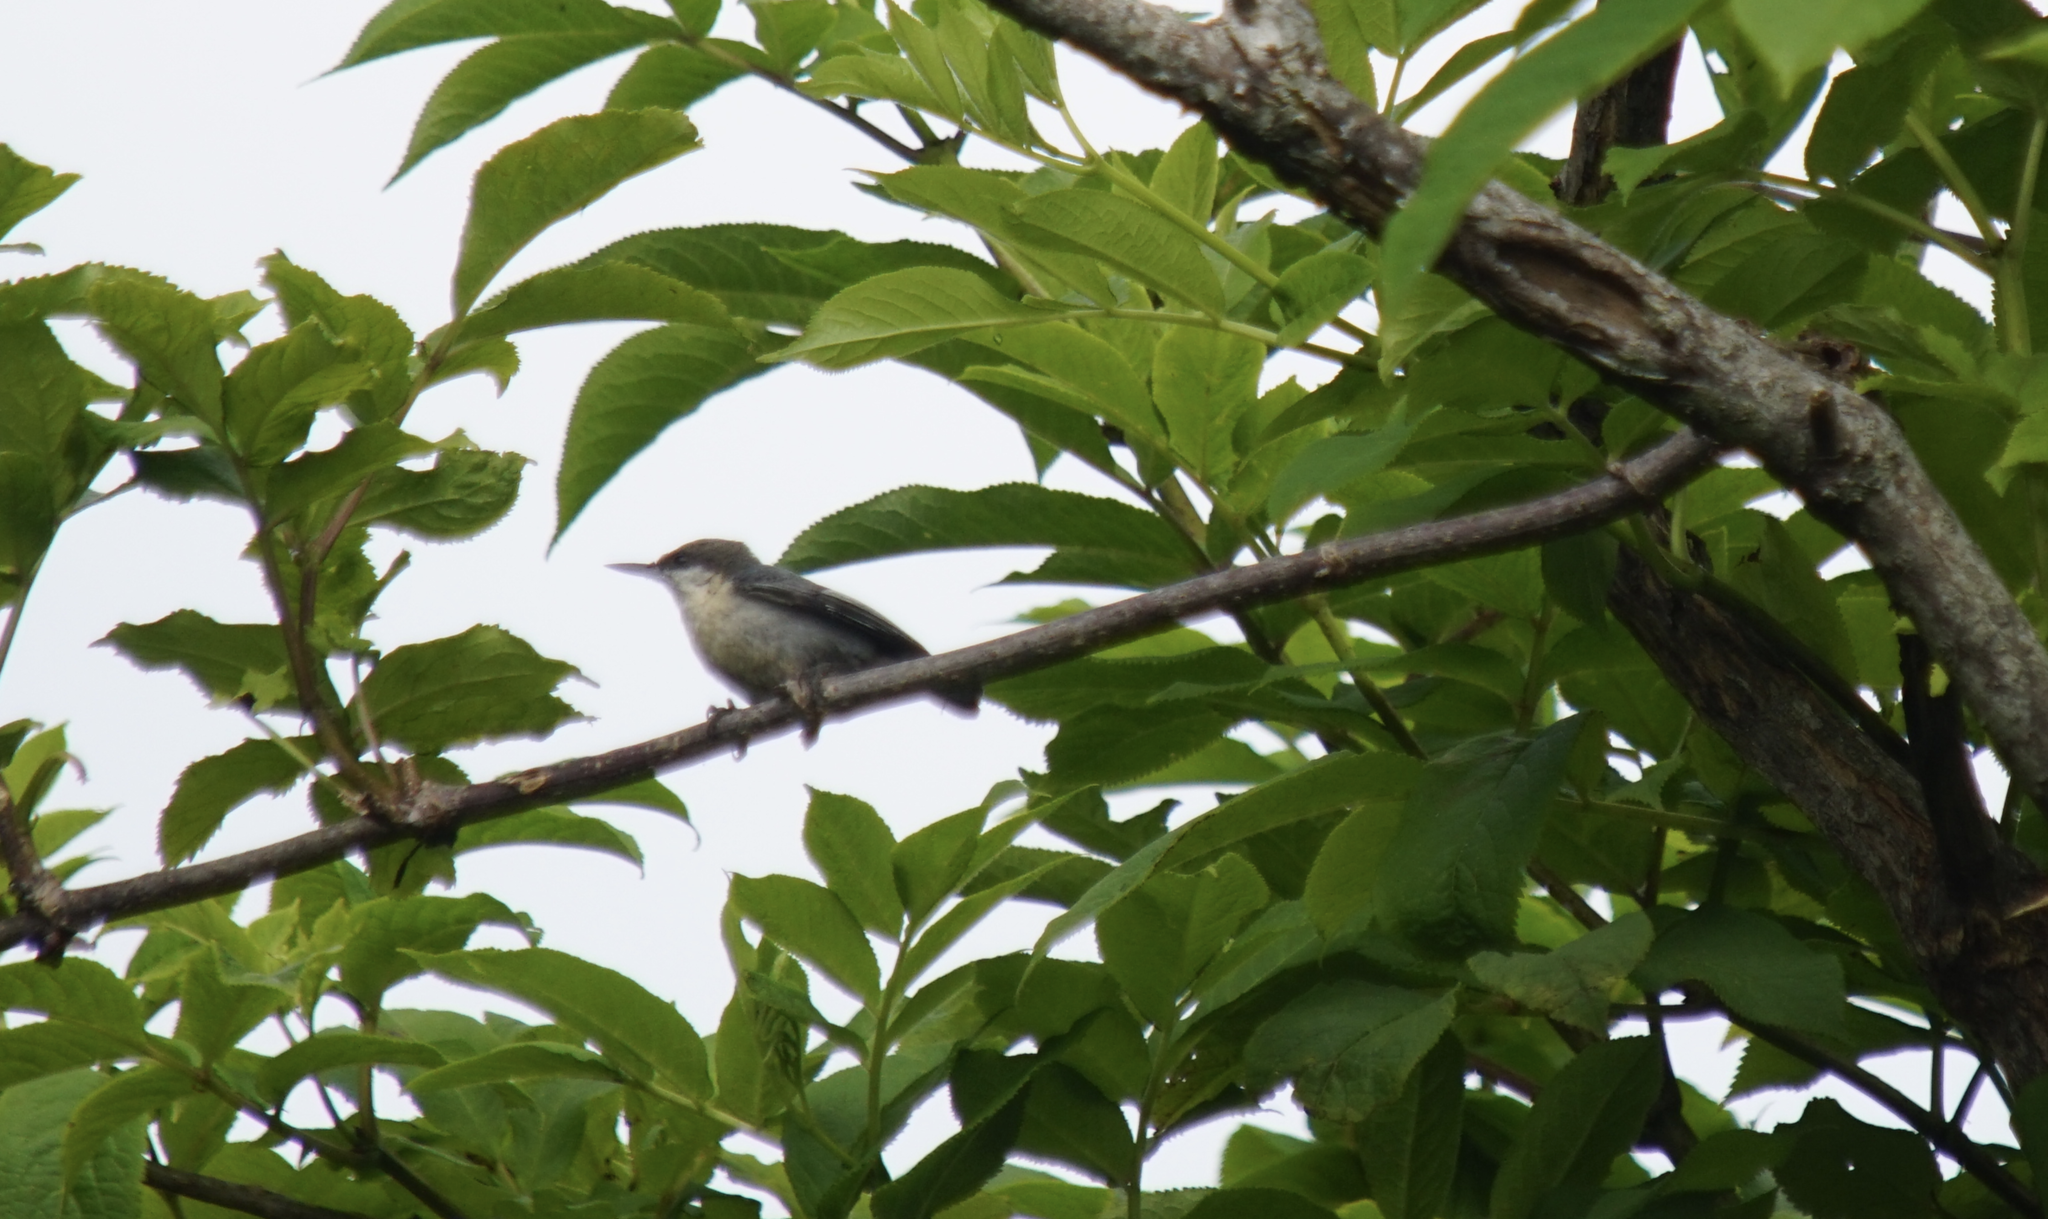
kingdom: Animalia
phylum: Chordata
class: Aves
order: Passeriformes
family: Sittidae
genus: Sitta
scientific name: Sitta pygmaea
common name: Pygmy nuthatch
